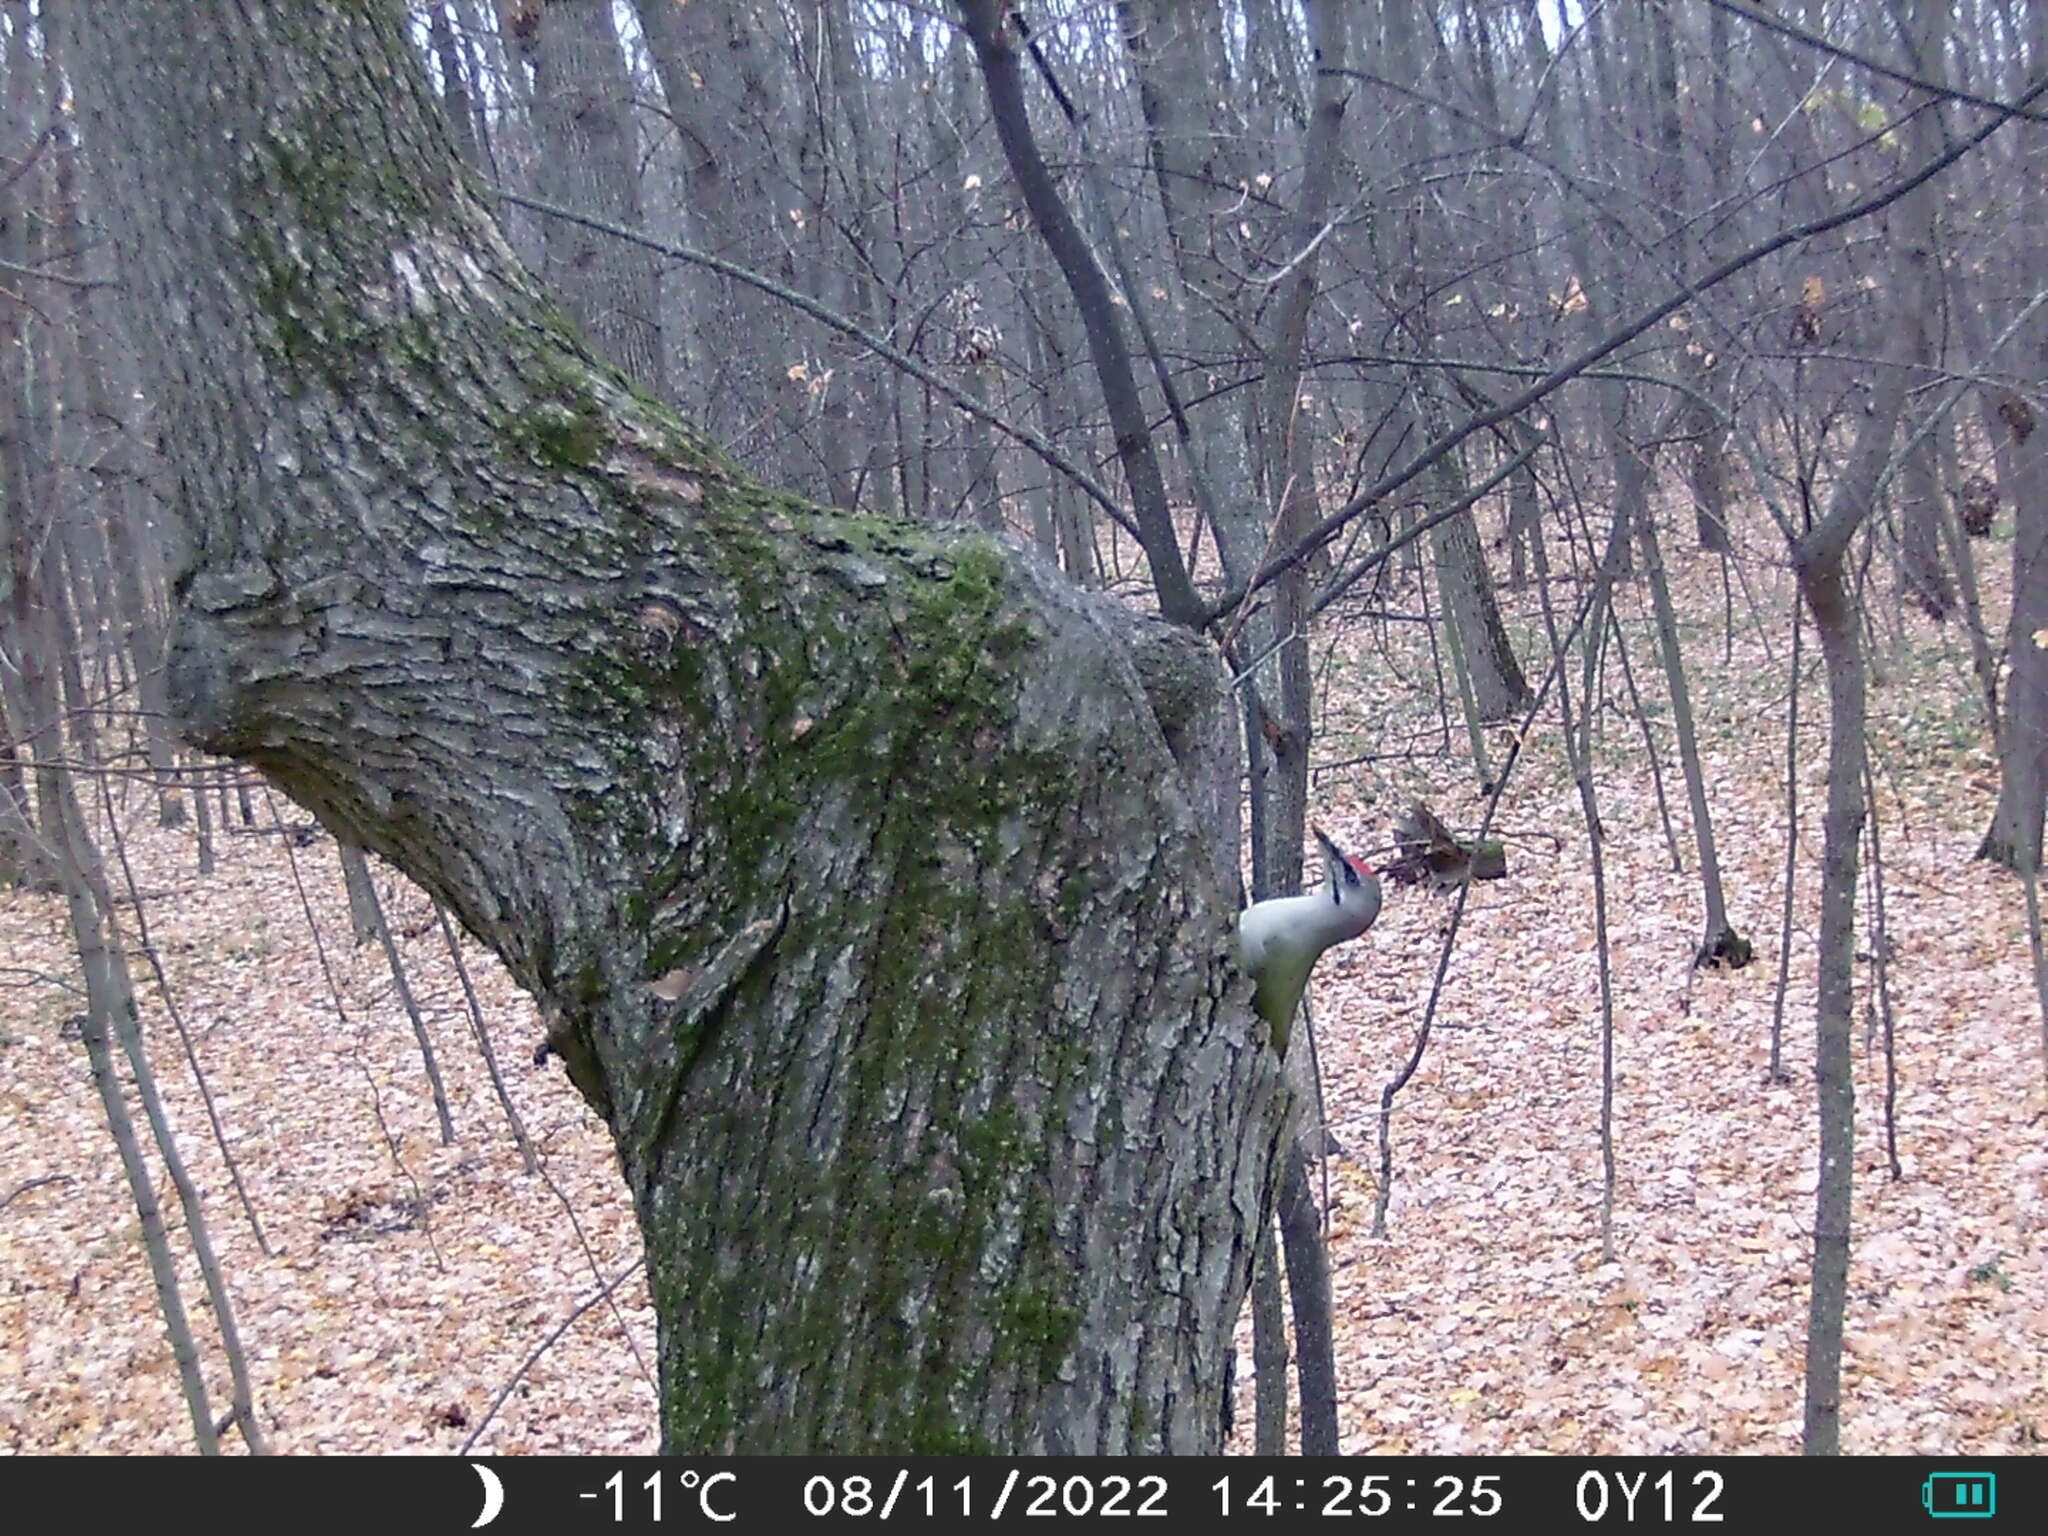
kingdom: Animalia
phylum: Chordata
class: Aves
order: Piciformes
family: Picidae
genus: Picus
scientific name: Picus canus
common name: Grey-headed woodpecker
